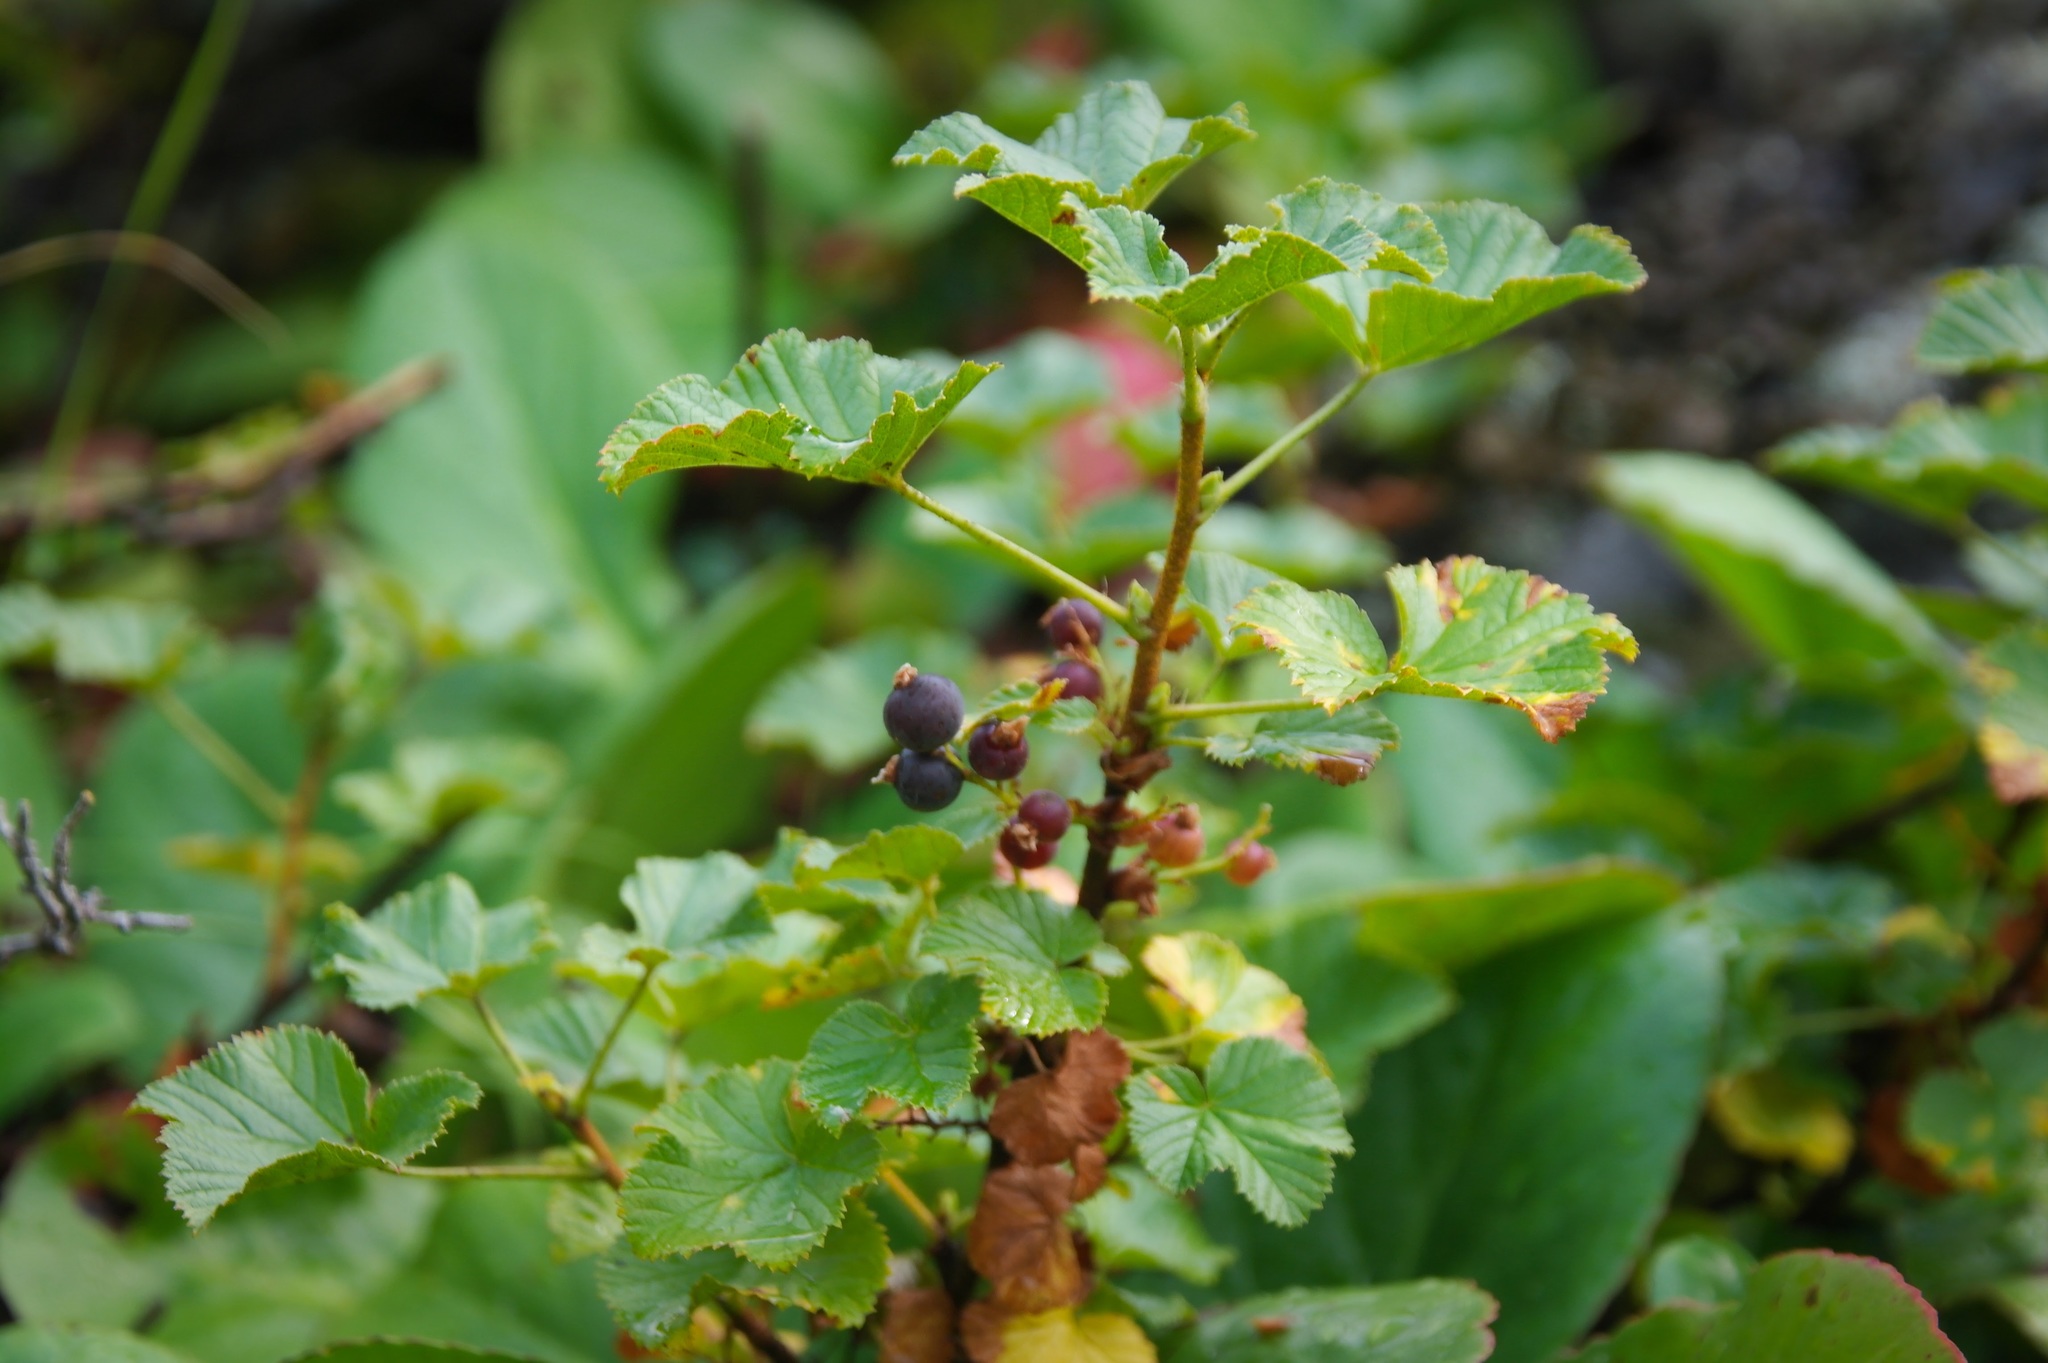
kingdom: Plantae
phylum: Tracheophyta
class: Magnoliopsida
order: Saxifragales
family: Grossulariaceae
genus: Ribes
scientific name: Ribes fragrans
